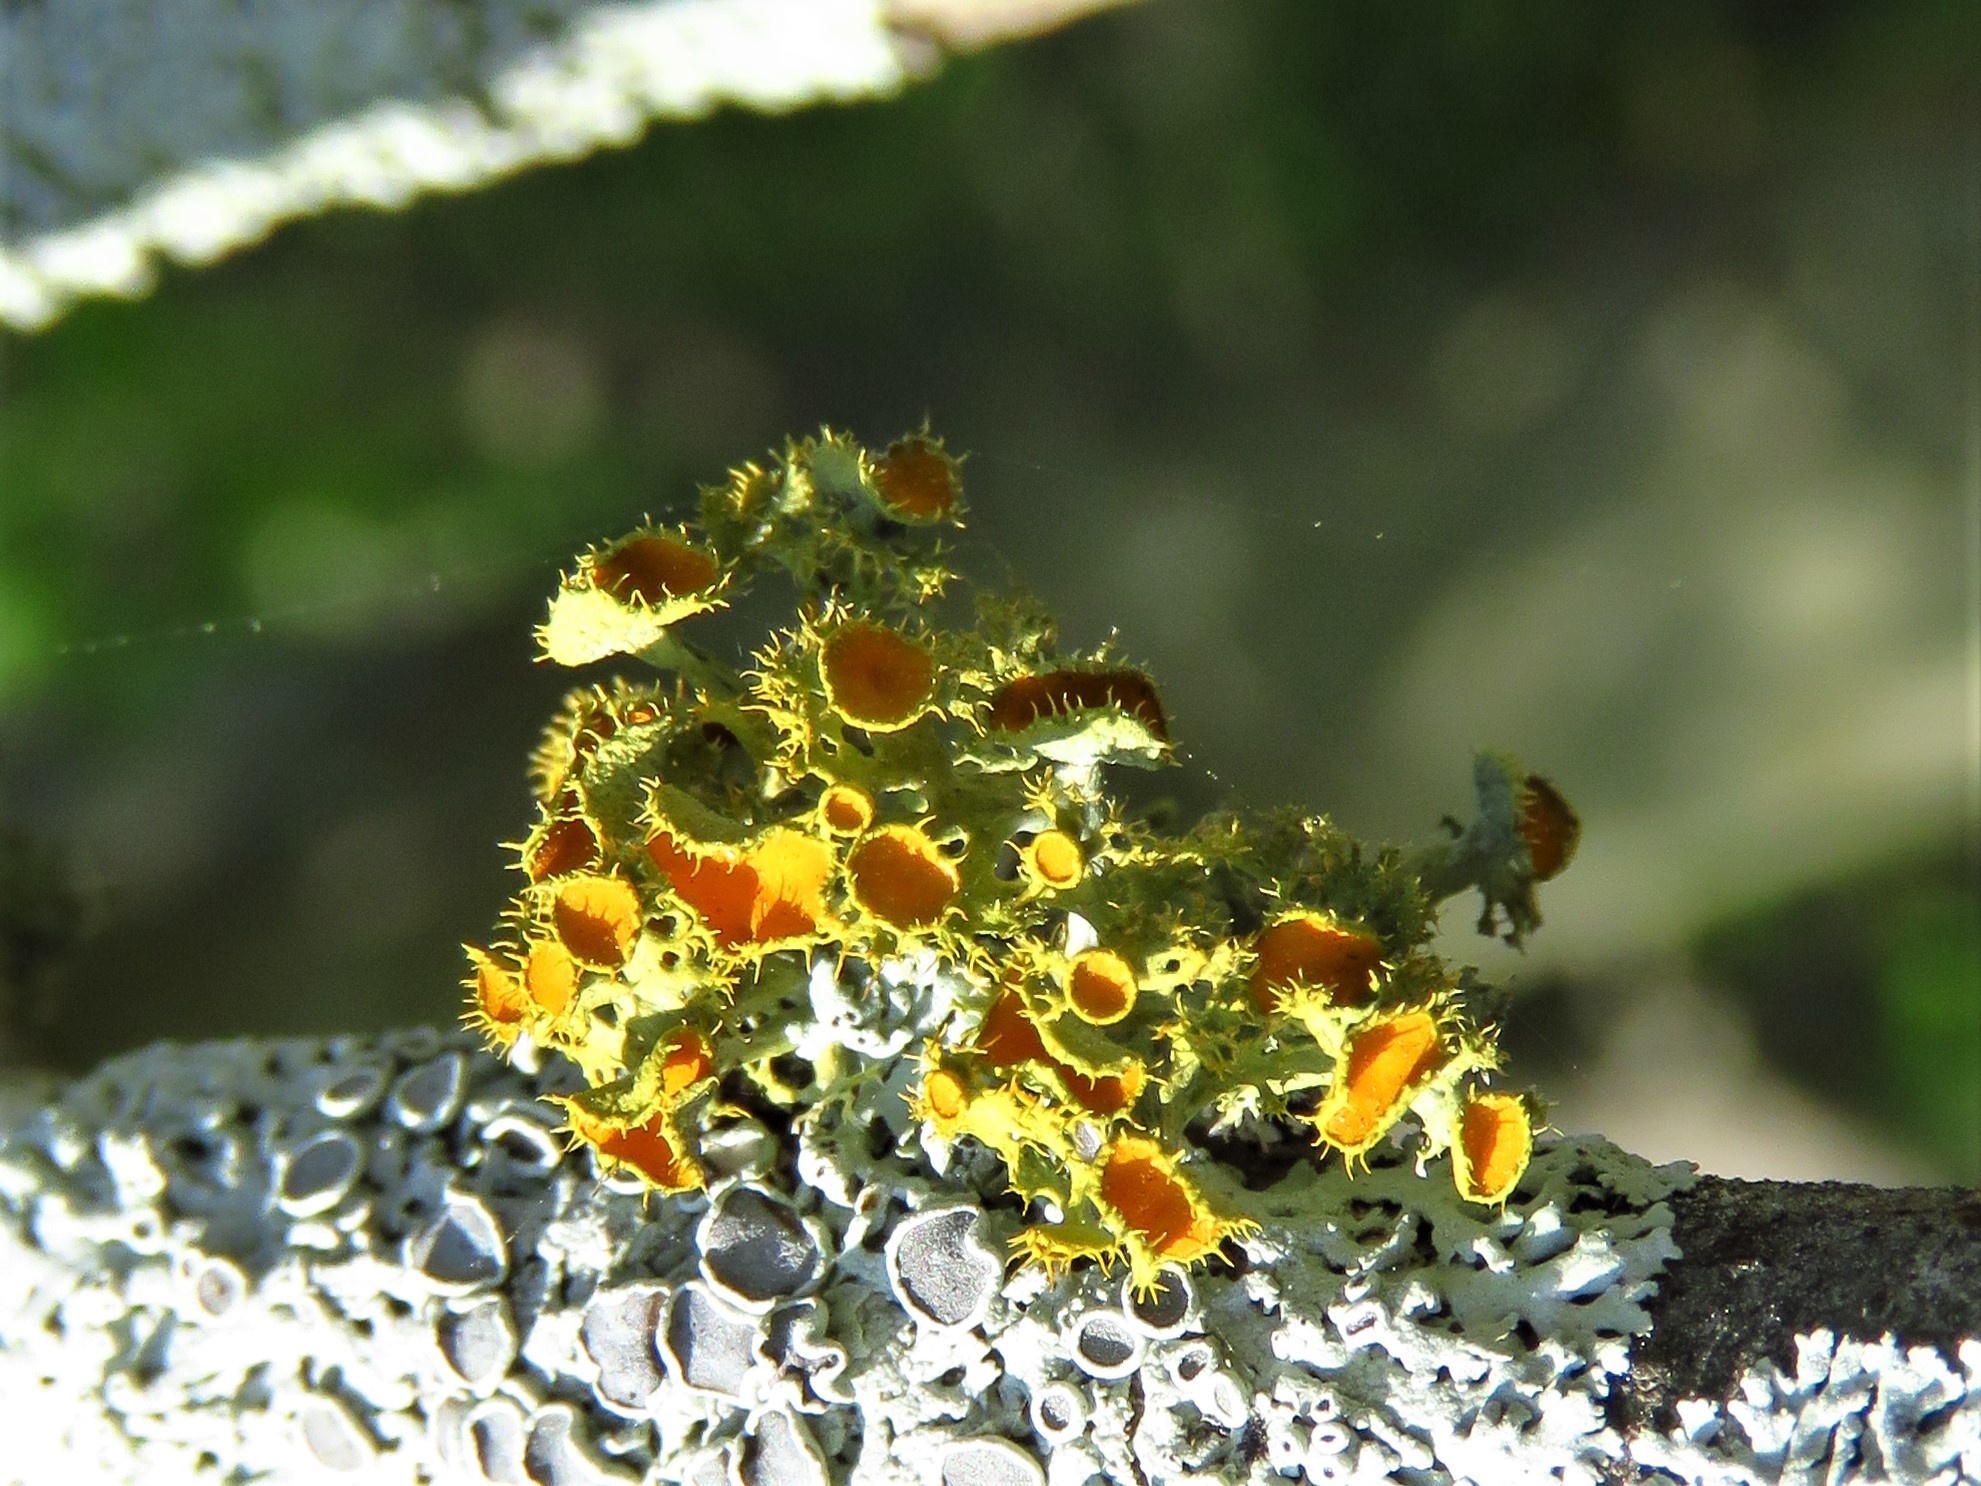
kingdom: Fungi
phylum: Ascomycota
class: Lecanoromycetes
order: Teloschistales
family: Teloschistaceae
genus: Niorma
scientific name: Niorma chrysophthalma
